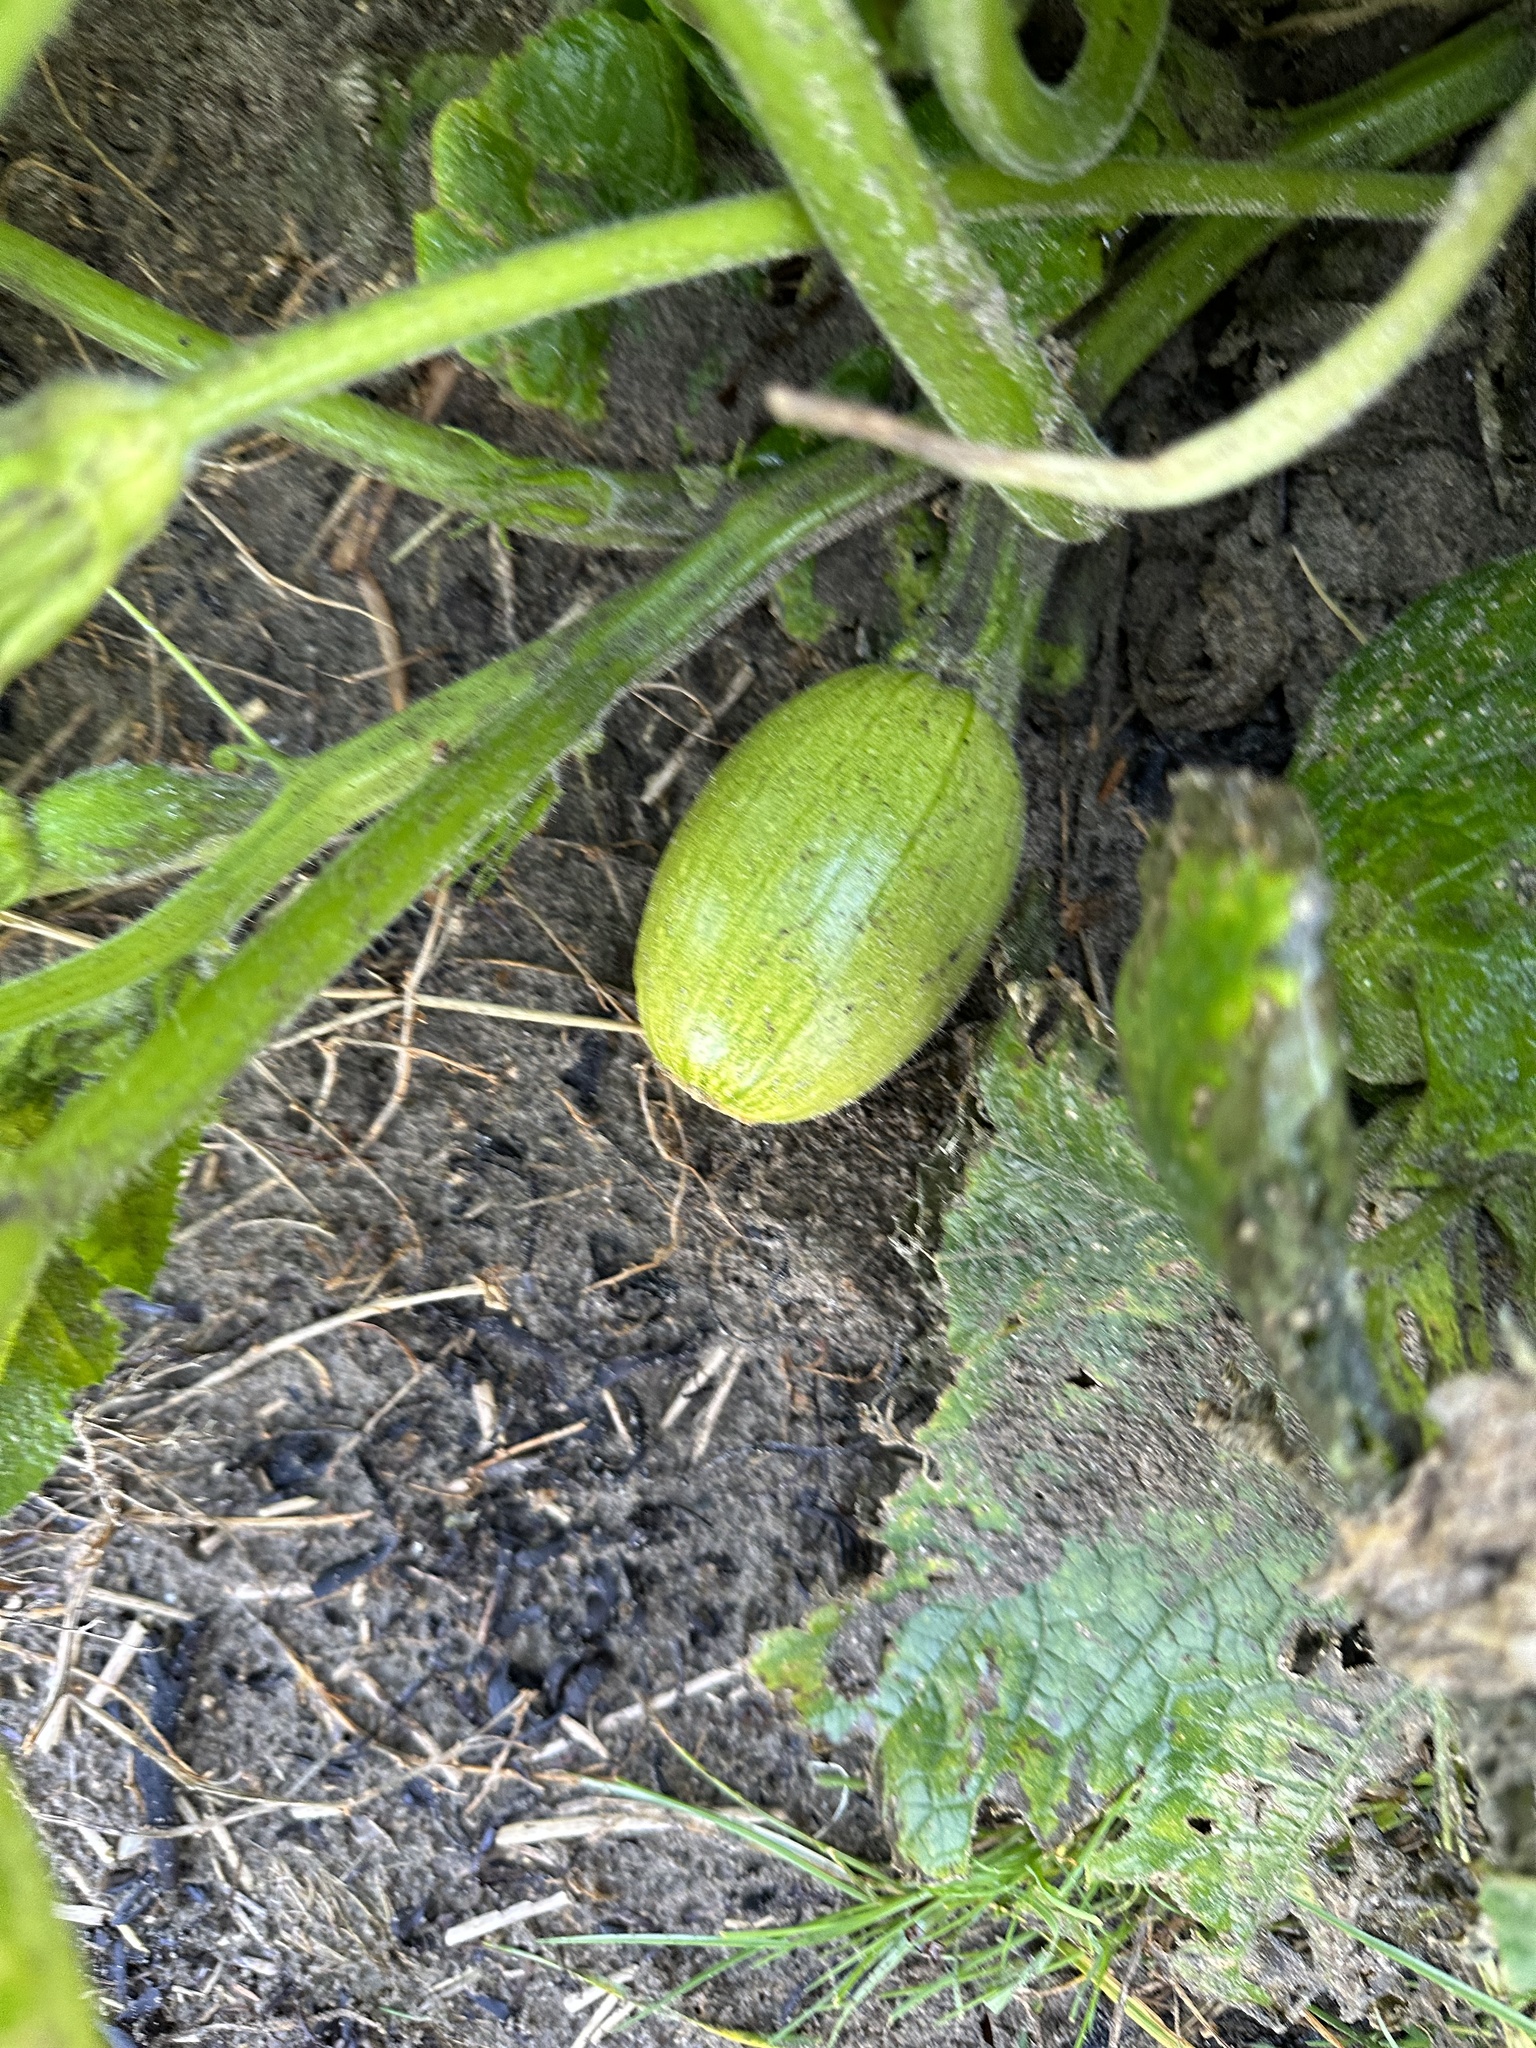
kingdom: Plantae
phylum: Tracheophyta
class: Magnoliopsida
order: Cucurbitales
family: Cucurbitaceae
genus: Cucurbita
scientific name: Cucurbita pepo
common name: Marrow
